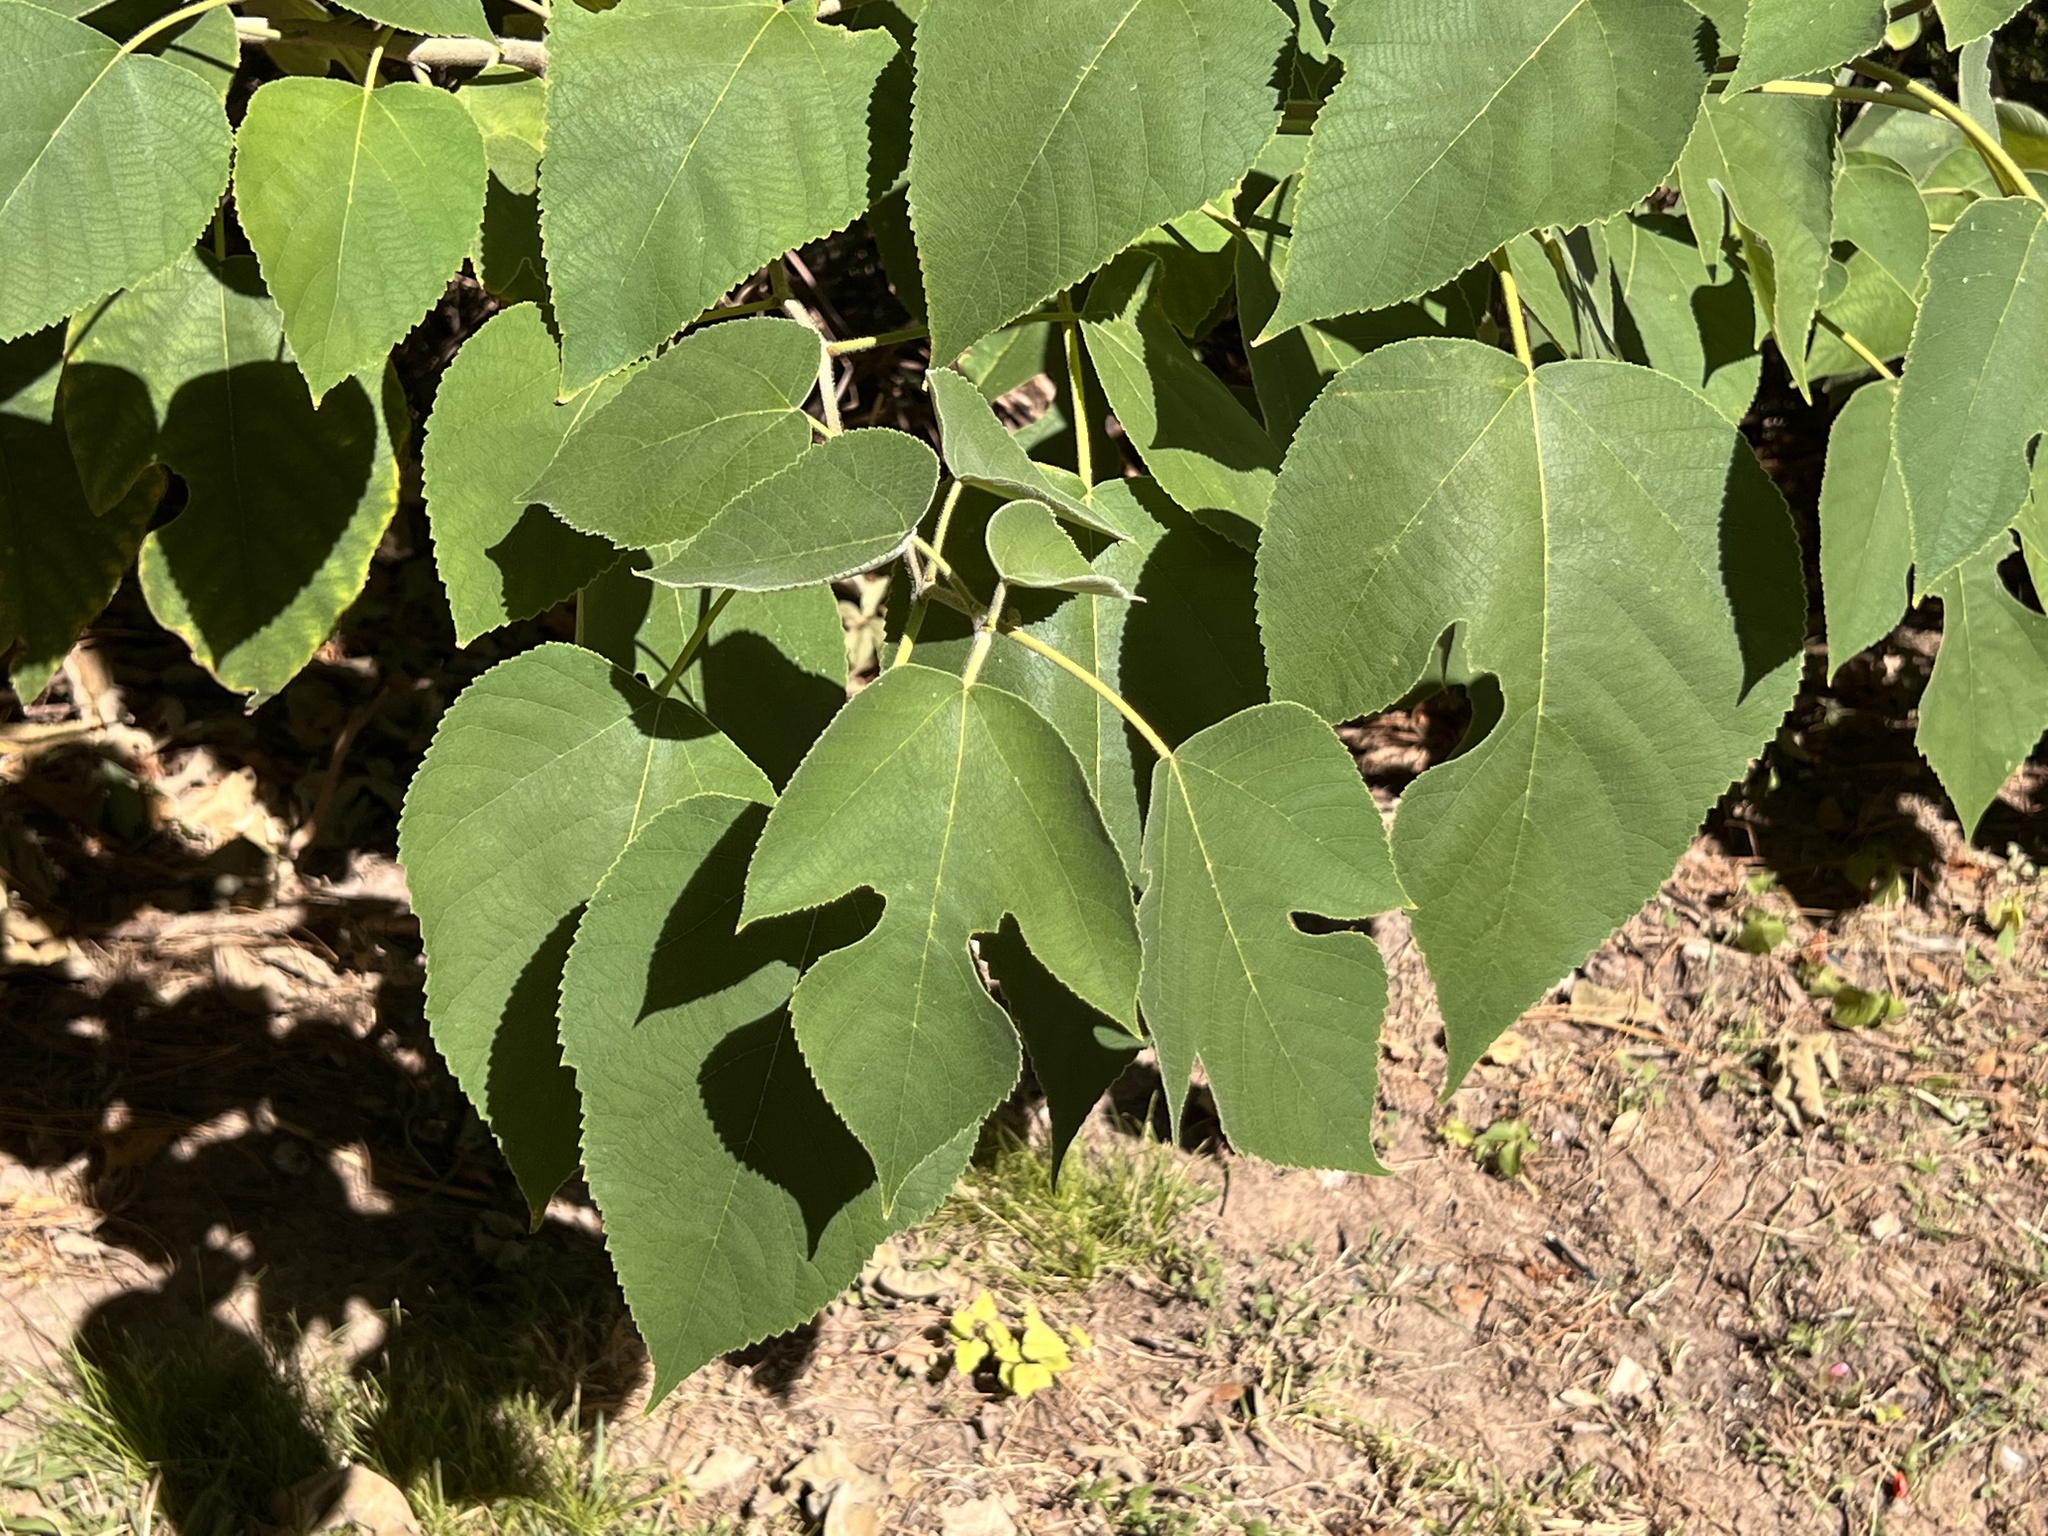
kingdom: Plantae
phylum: Tracheophyta
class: Magnoliopsida
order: Rosales
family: Moraceae
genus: Broussonetia
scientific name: Broussonetia papyrifera
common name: Paper mulberry
